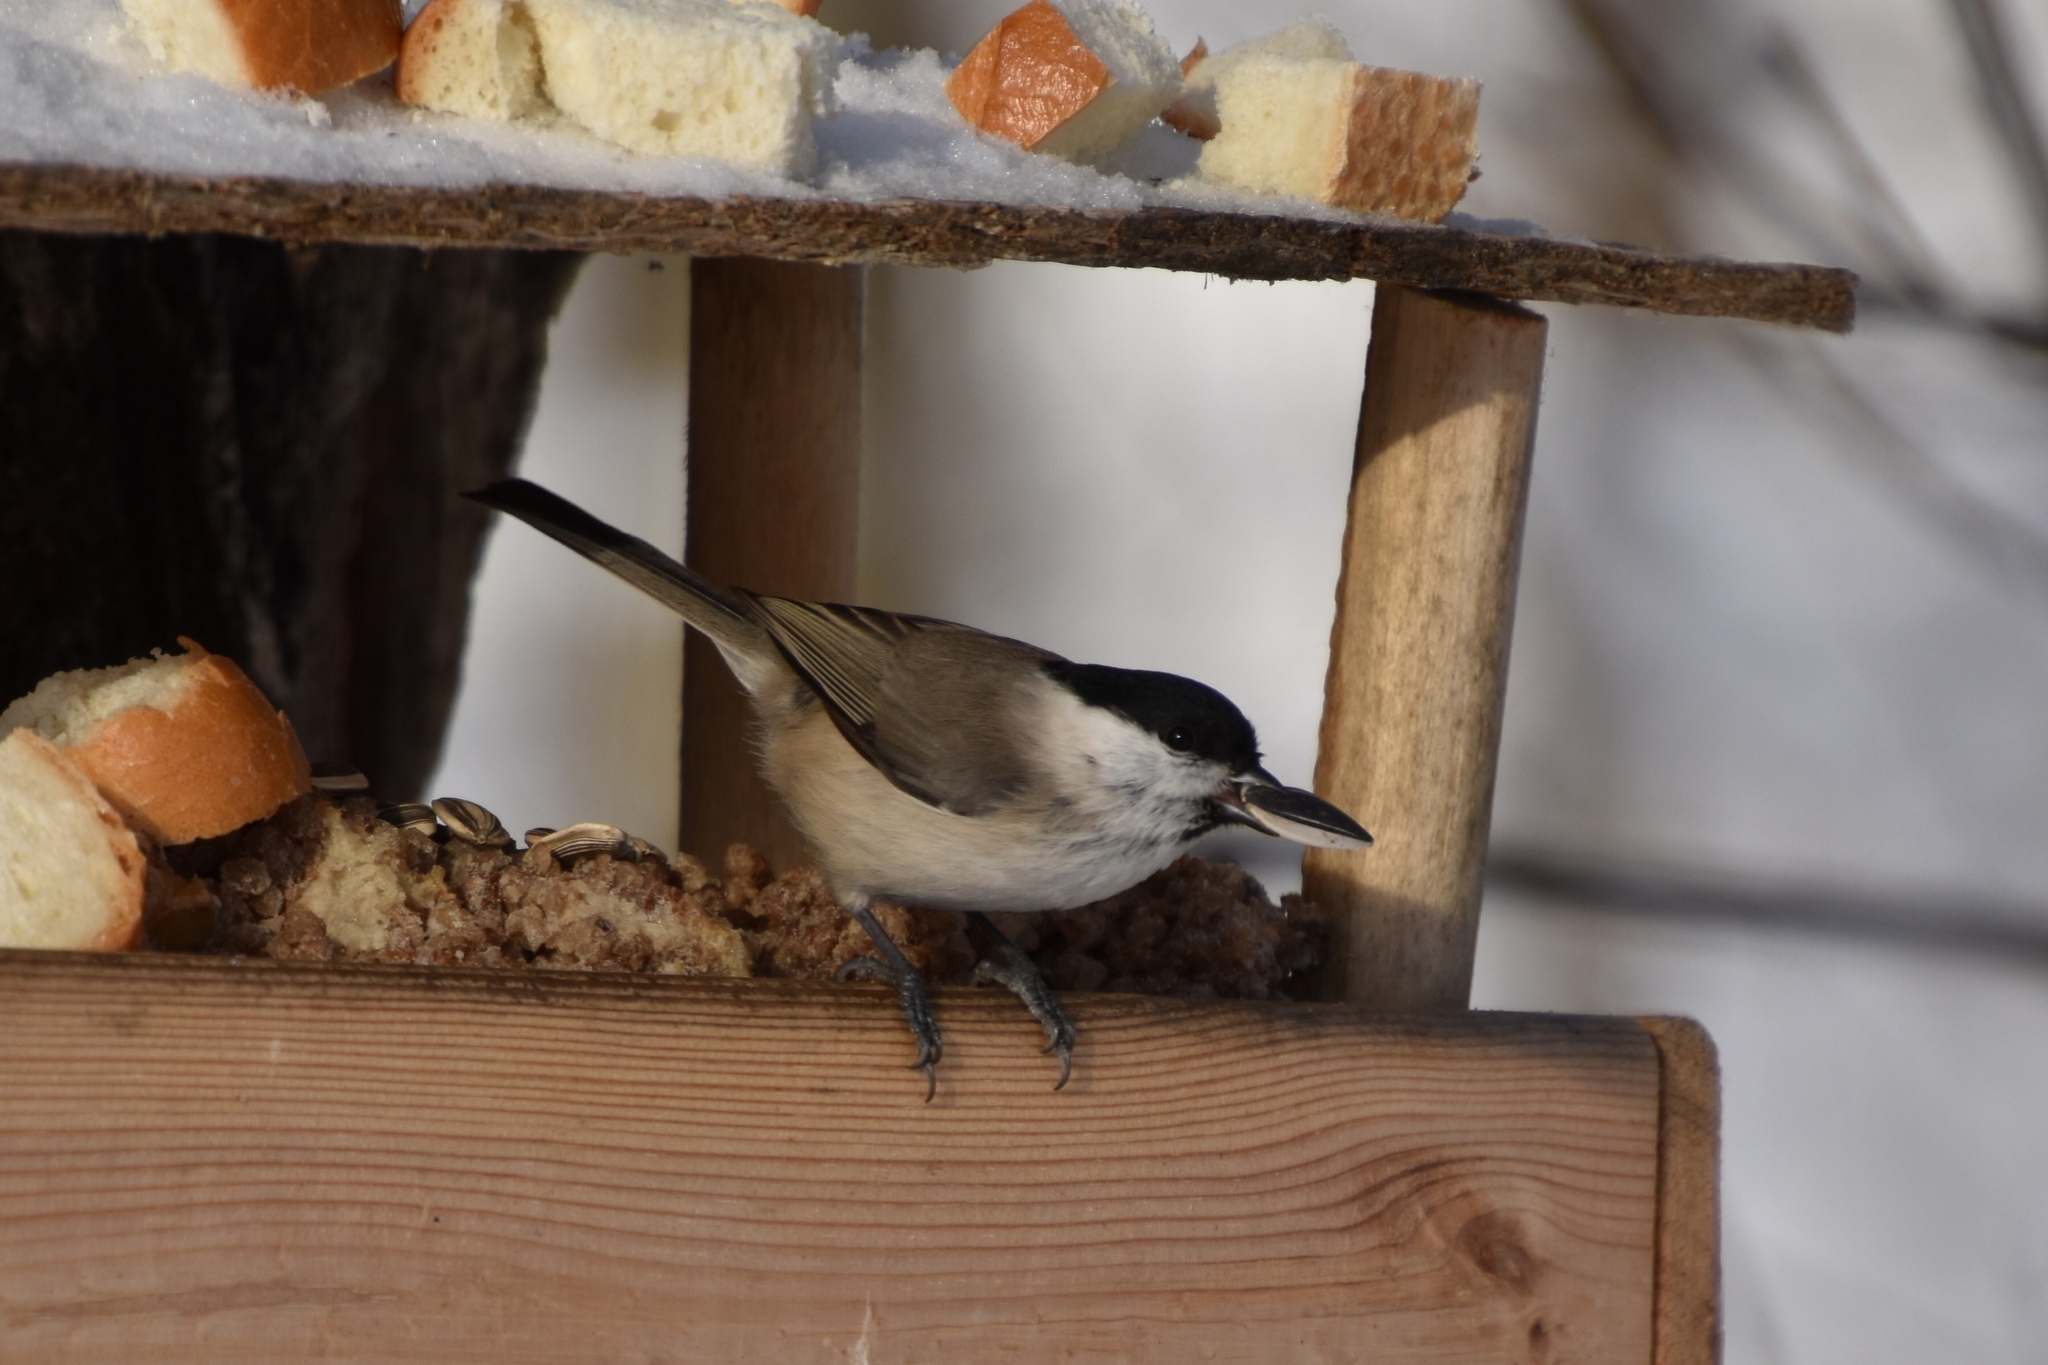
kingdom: Animalia
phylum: Chordata
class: Aves
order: Passeriformes
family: Paridae
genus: Poecile
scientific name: Poecile palustris
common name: Marsh tit
